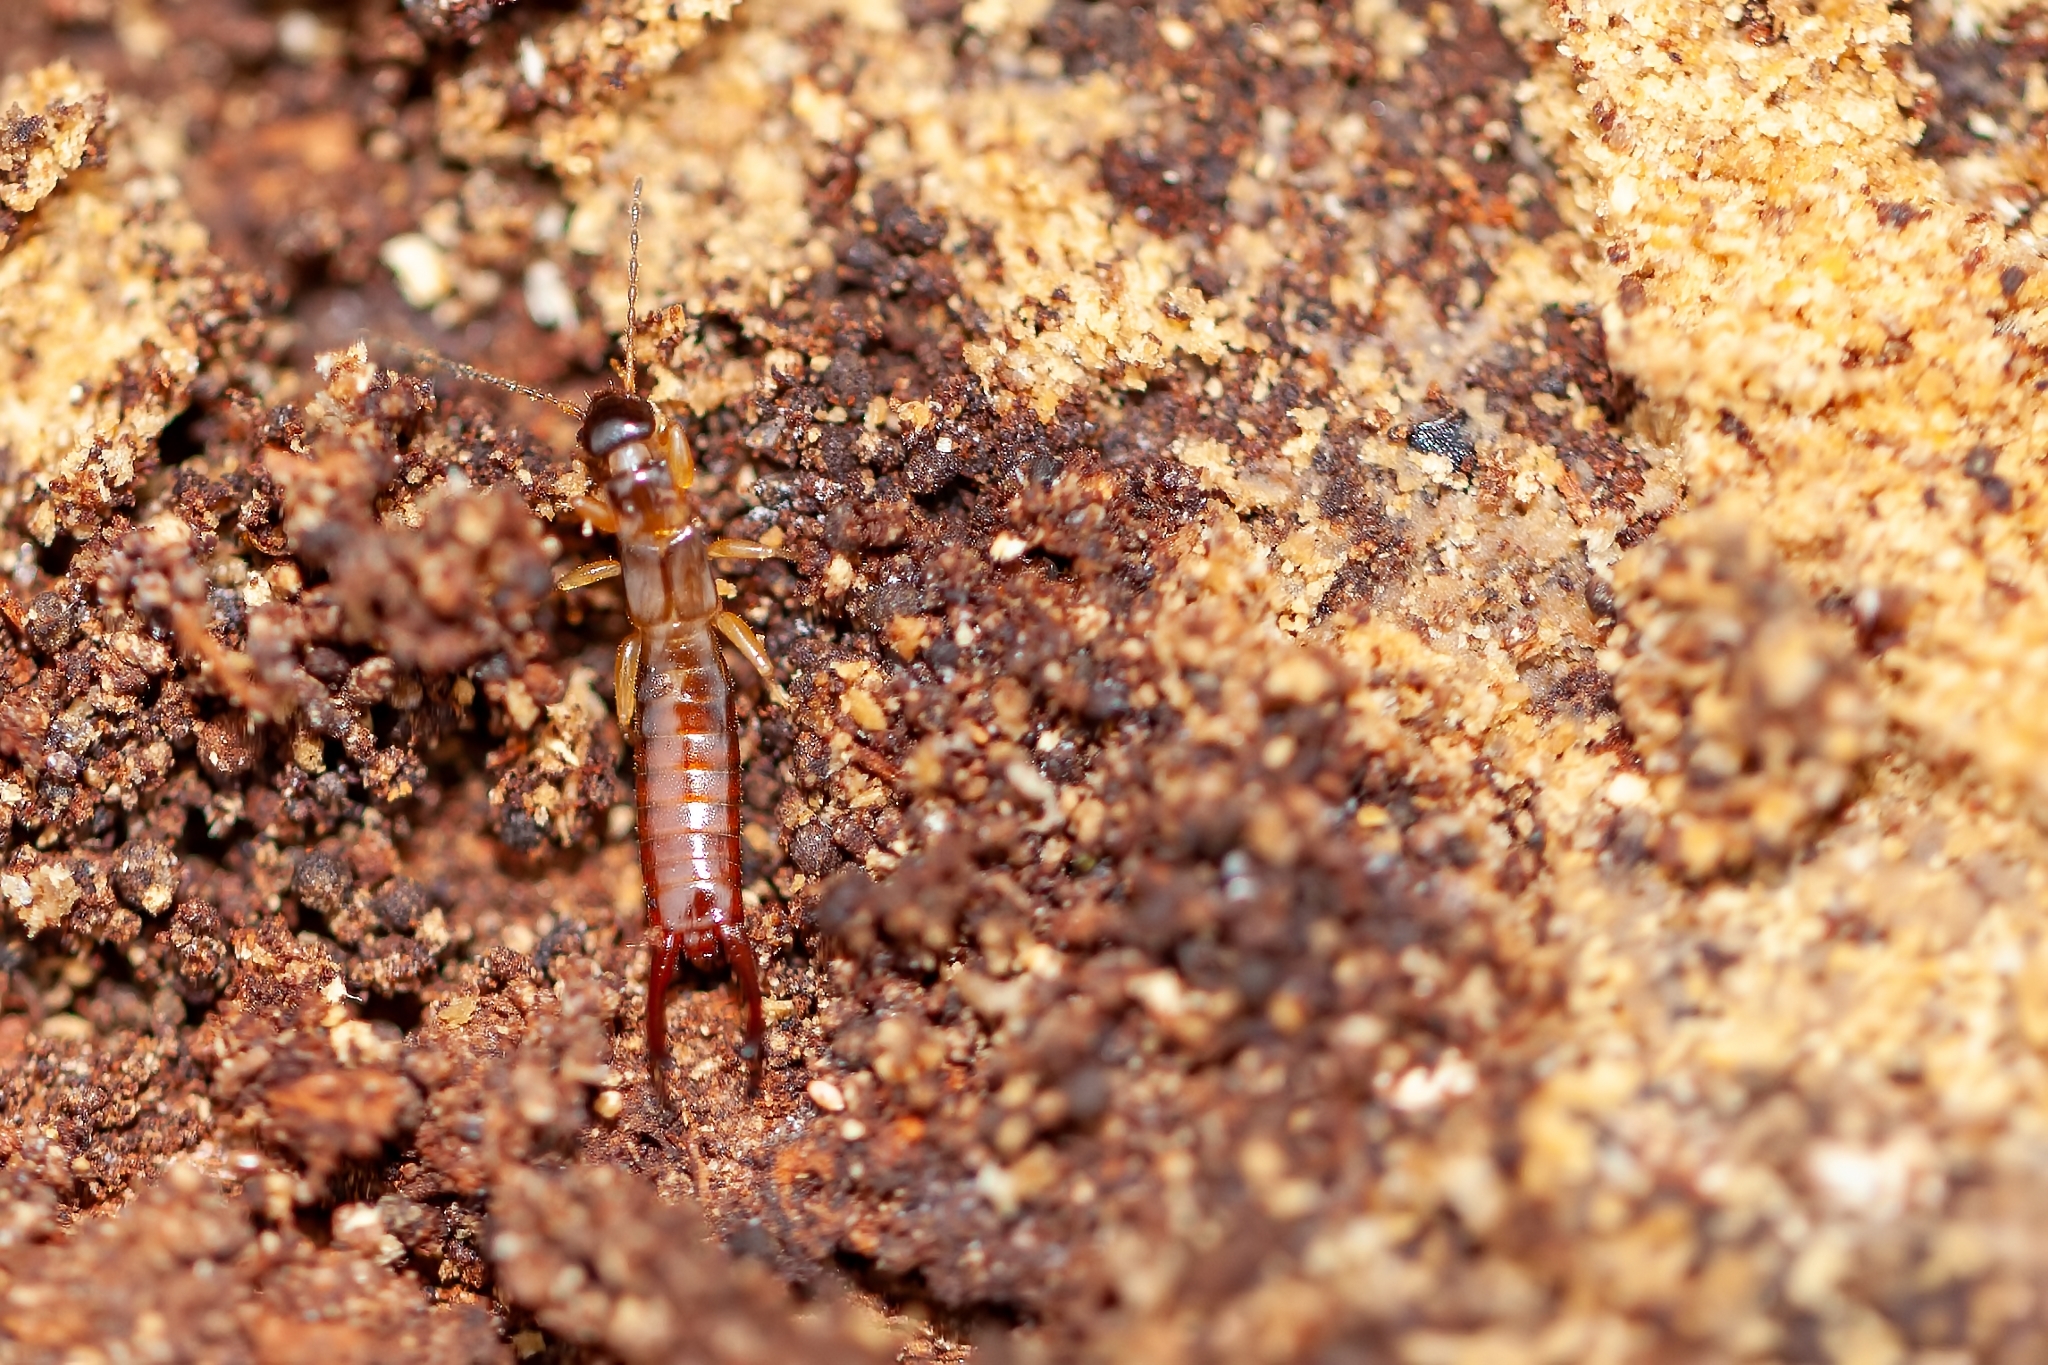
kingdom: Animalia
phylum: Arthropoda
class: Insecta
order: Dermaptera
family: Spongiphoridae
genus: Marava
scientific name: Marava pulchella
